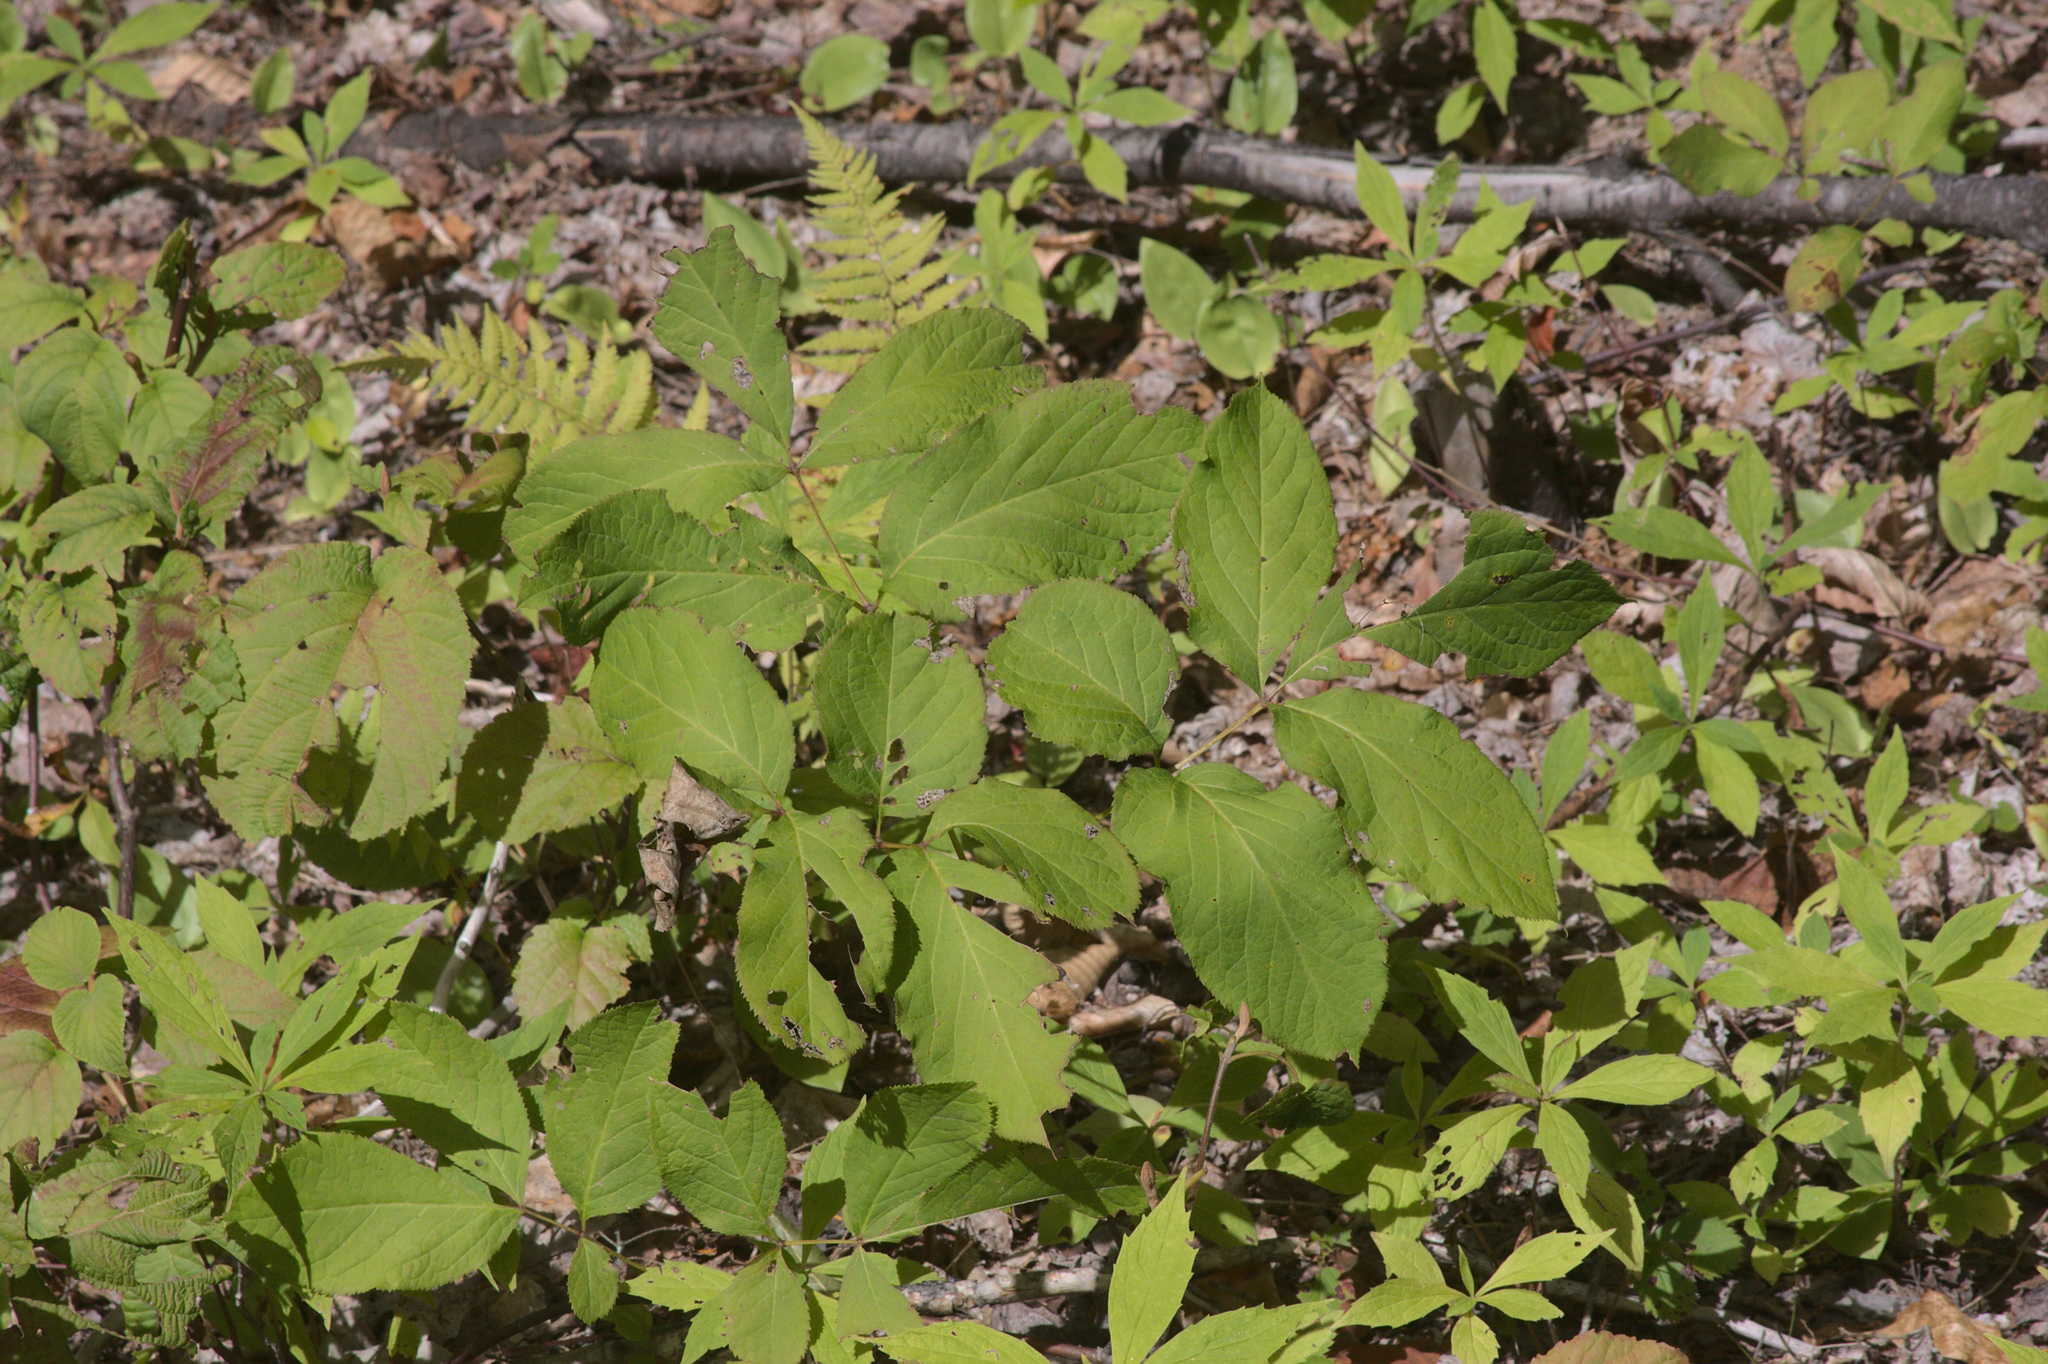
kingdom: Plantae
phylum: Tracheophyta
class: Magnoliopsida
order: Apiales
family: Araliaceae
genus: Aralia
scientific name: Aralia nudicaulis
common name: Wild sarsaparilla
